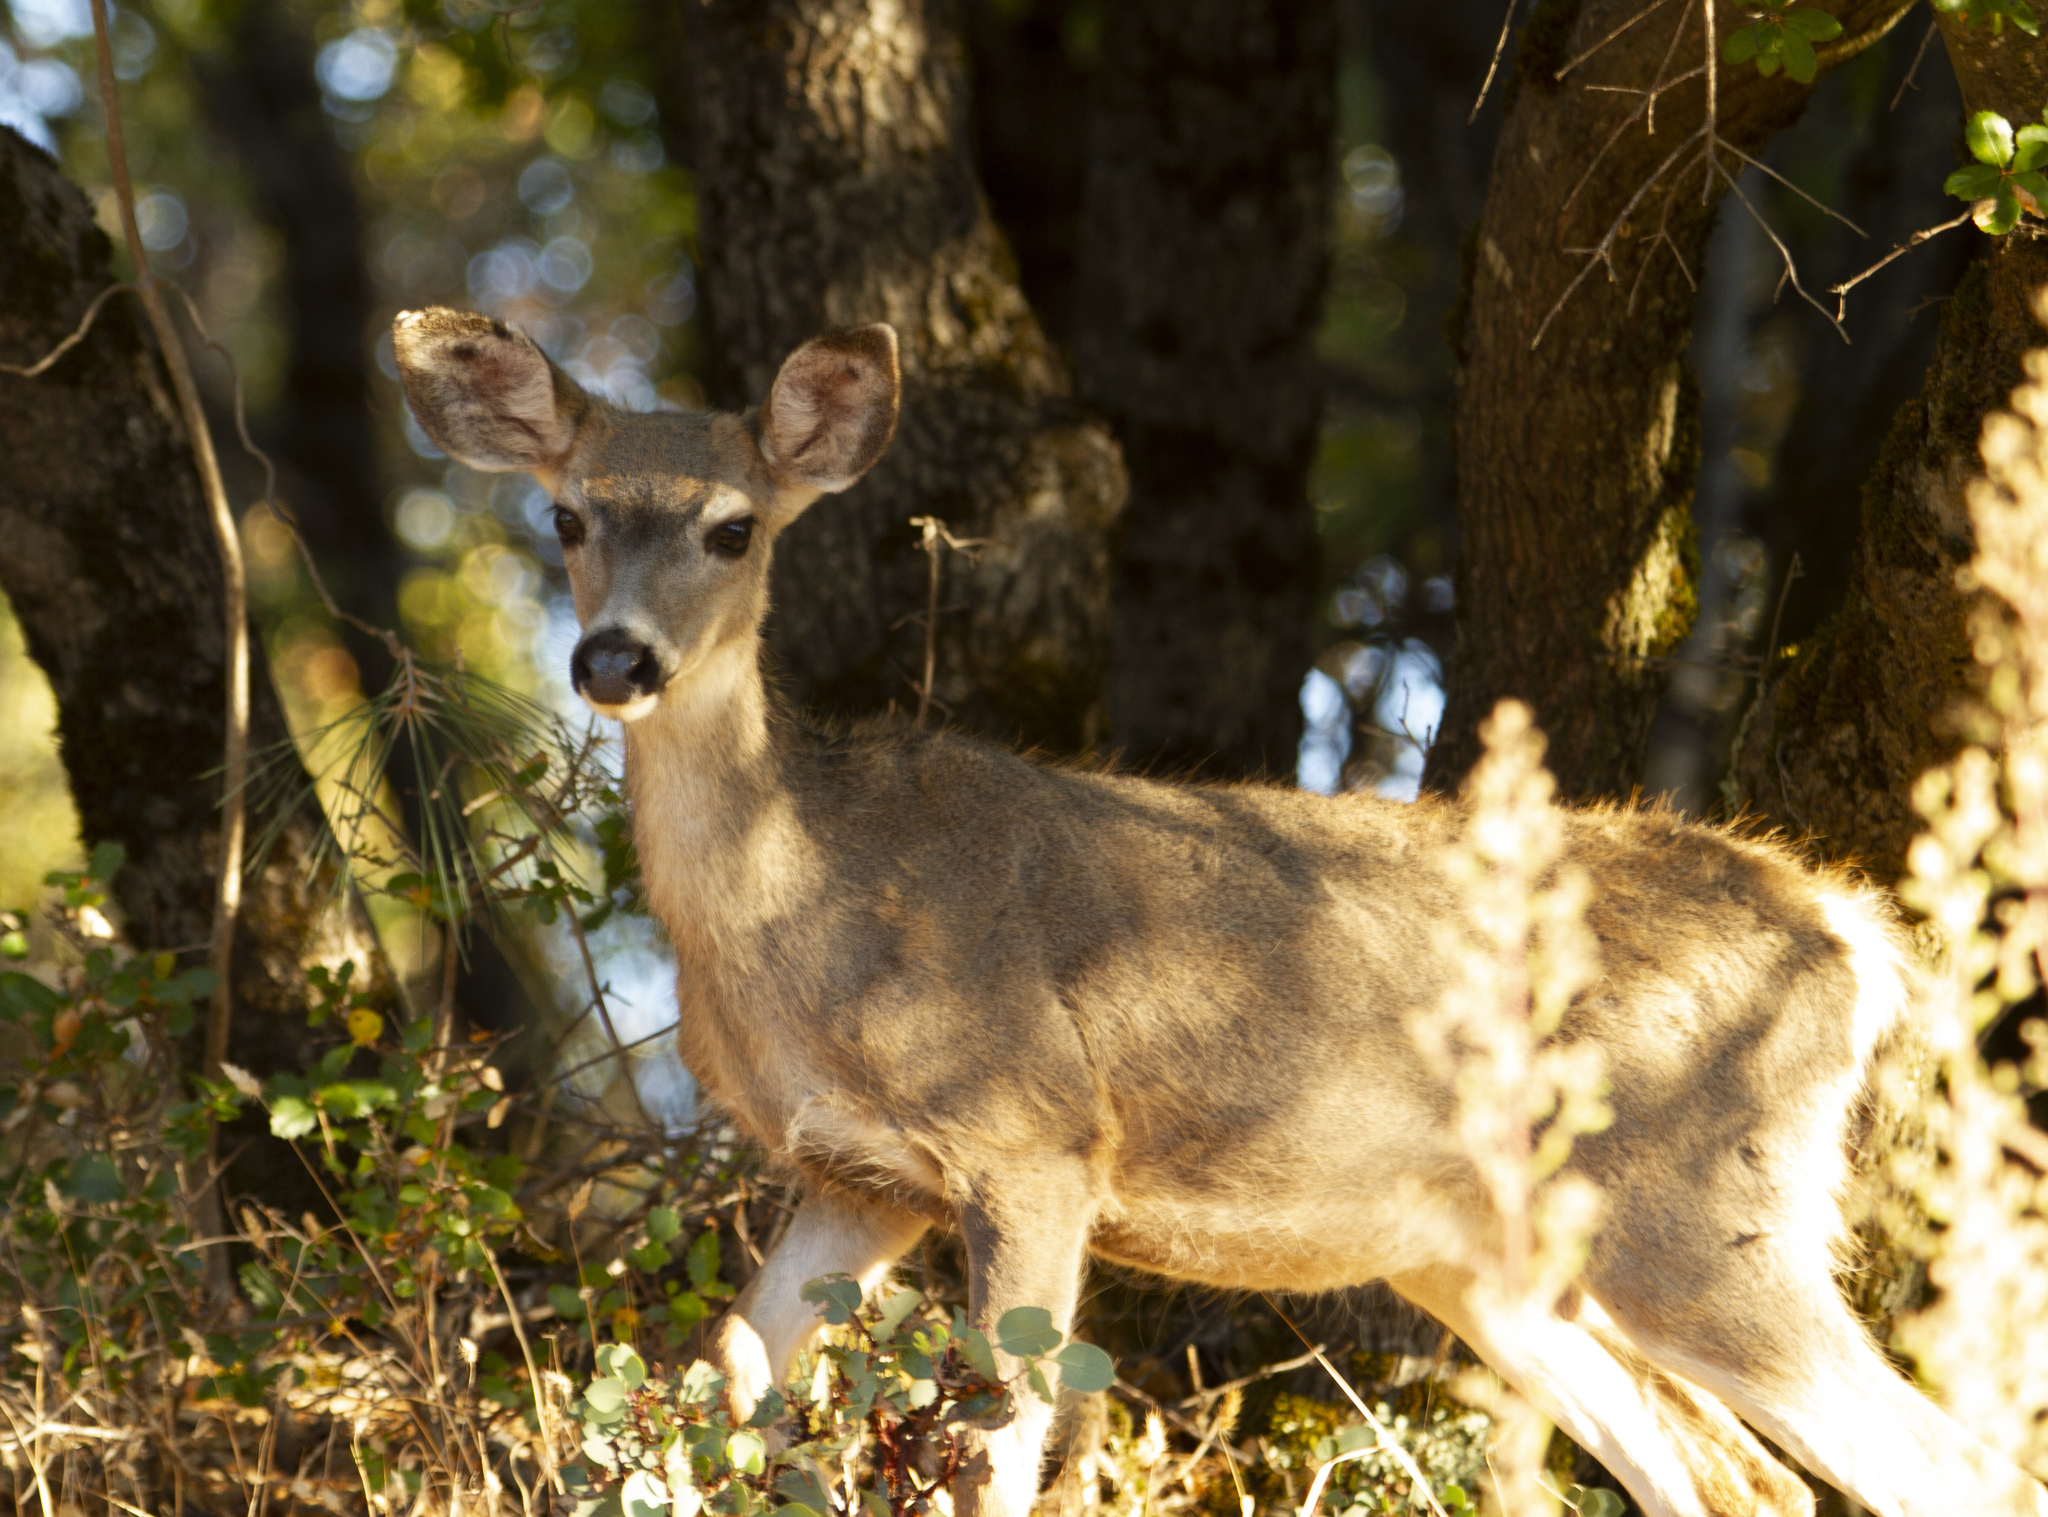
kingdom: Animalia
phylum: Chordata
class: Mammalia
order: Artiodactyla
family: Cervidae
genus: Odocoileus
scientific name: Odocoileus hemionus
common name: Mule deer
